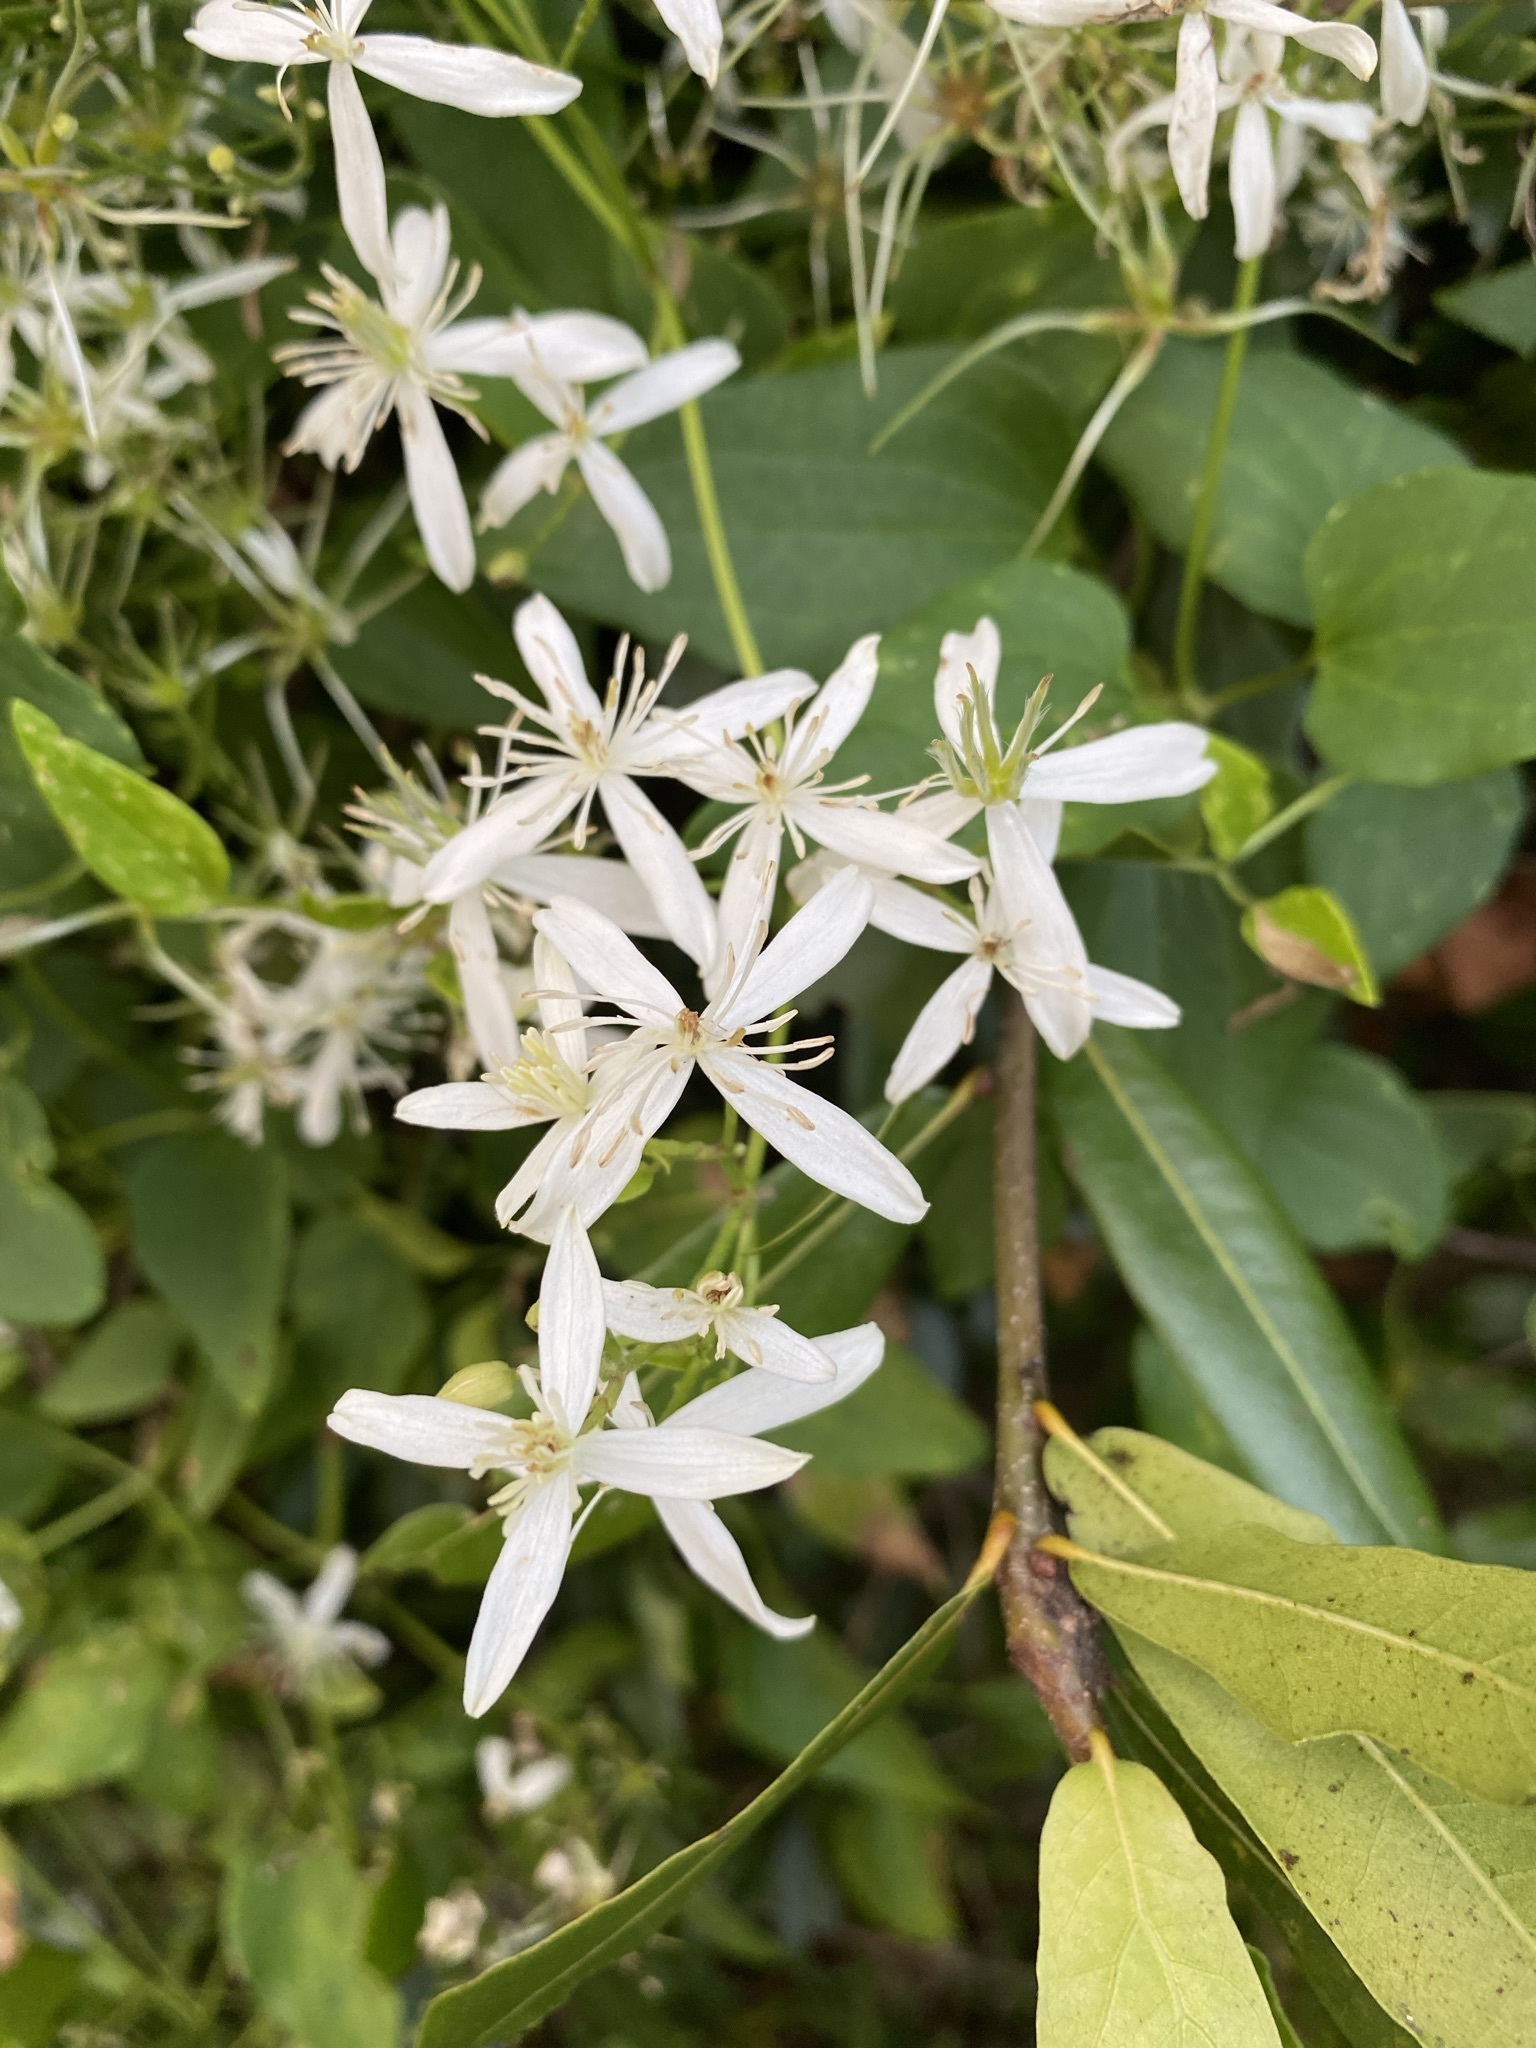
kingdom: Plantae
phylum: Tracheophyta
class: Magnoliopsida
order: Ranunculales
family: Ranunculaceae
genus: Clematis
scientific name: Clematis terniflora
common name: Sweet autumn clematis
